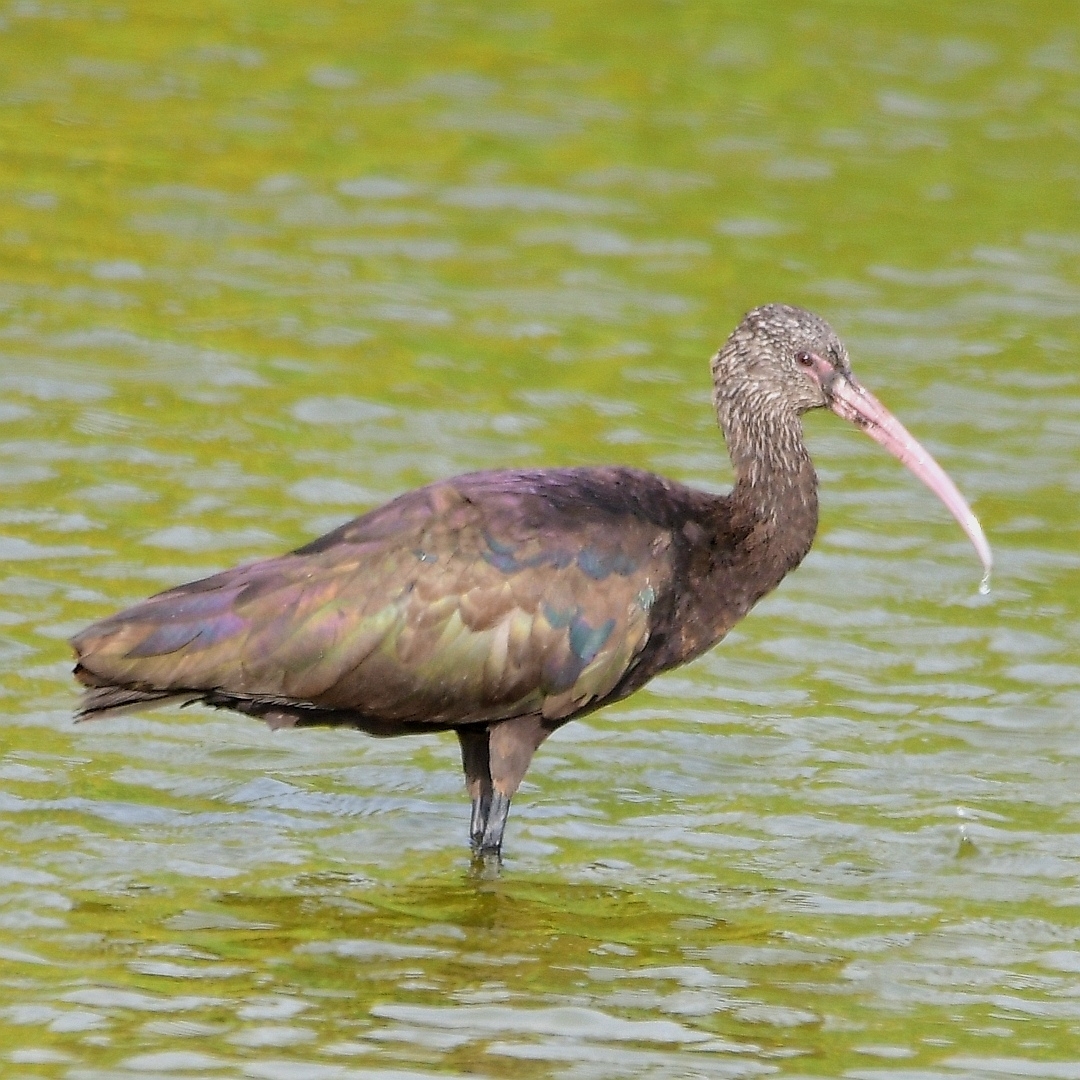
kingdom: Animalia
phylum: Chordata
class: Aves
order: Pelecaniformes
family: Threskiornithidae
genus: Plegadis
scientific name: Plegadis ridgwayi
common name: Puna ibis
